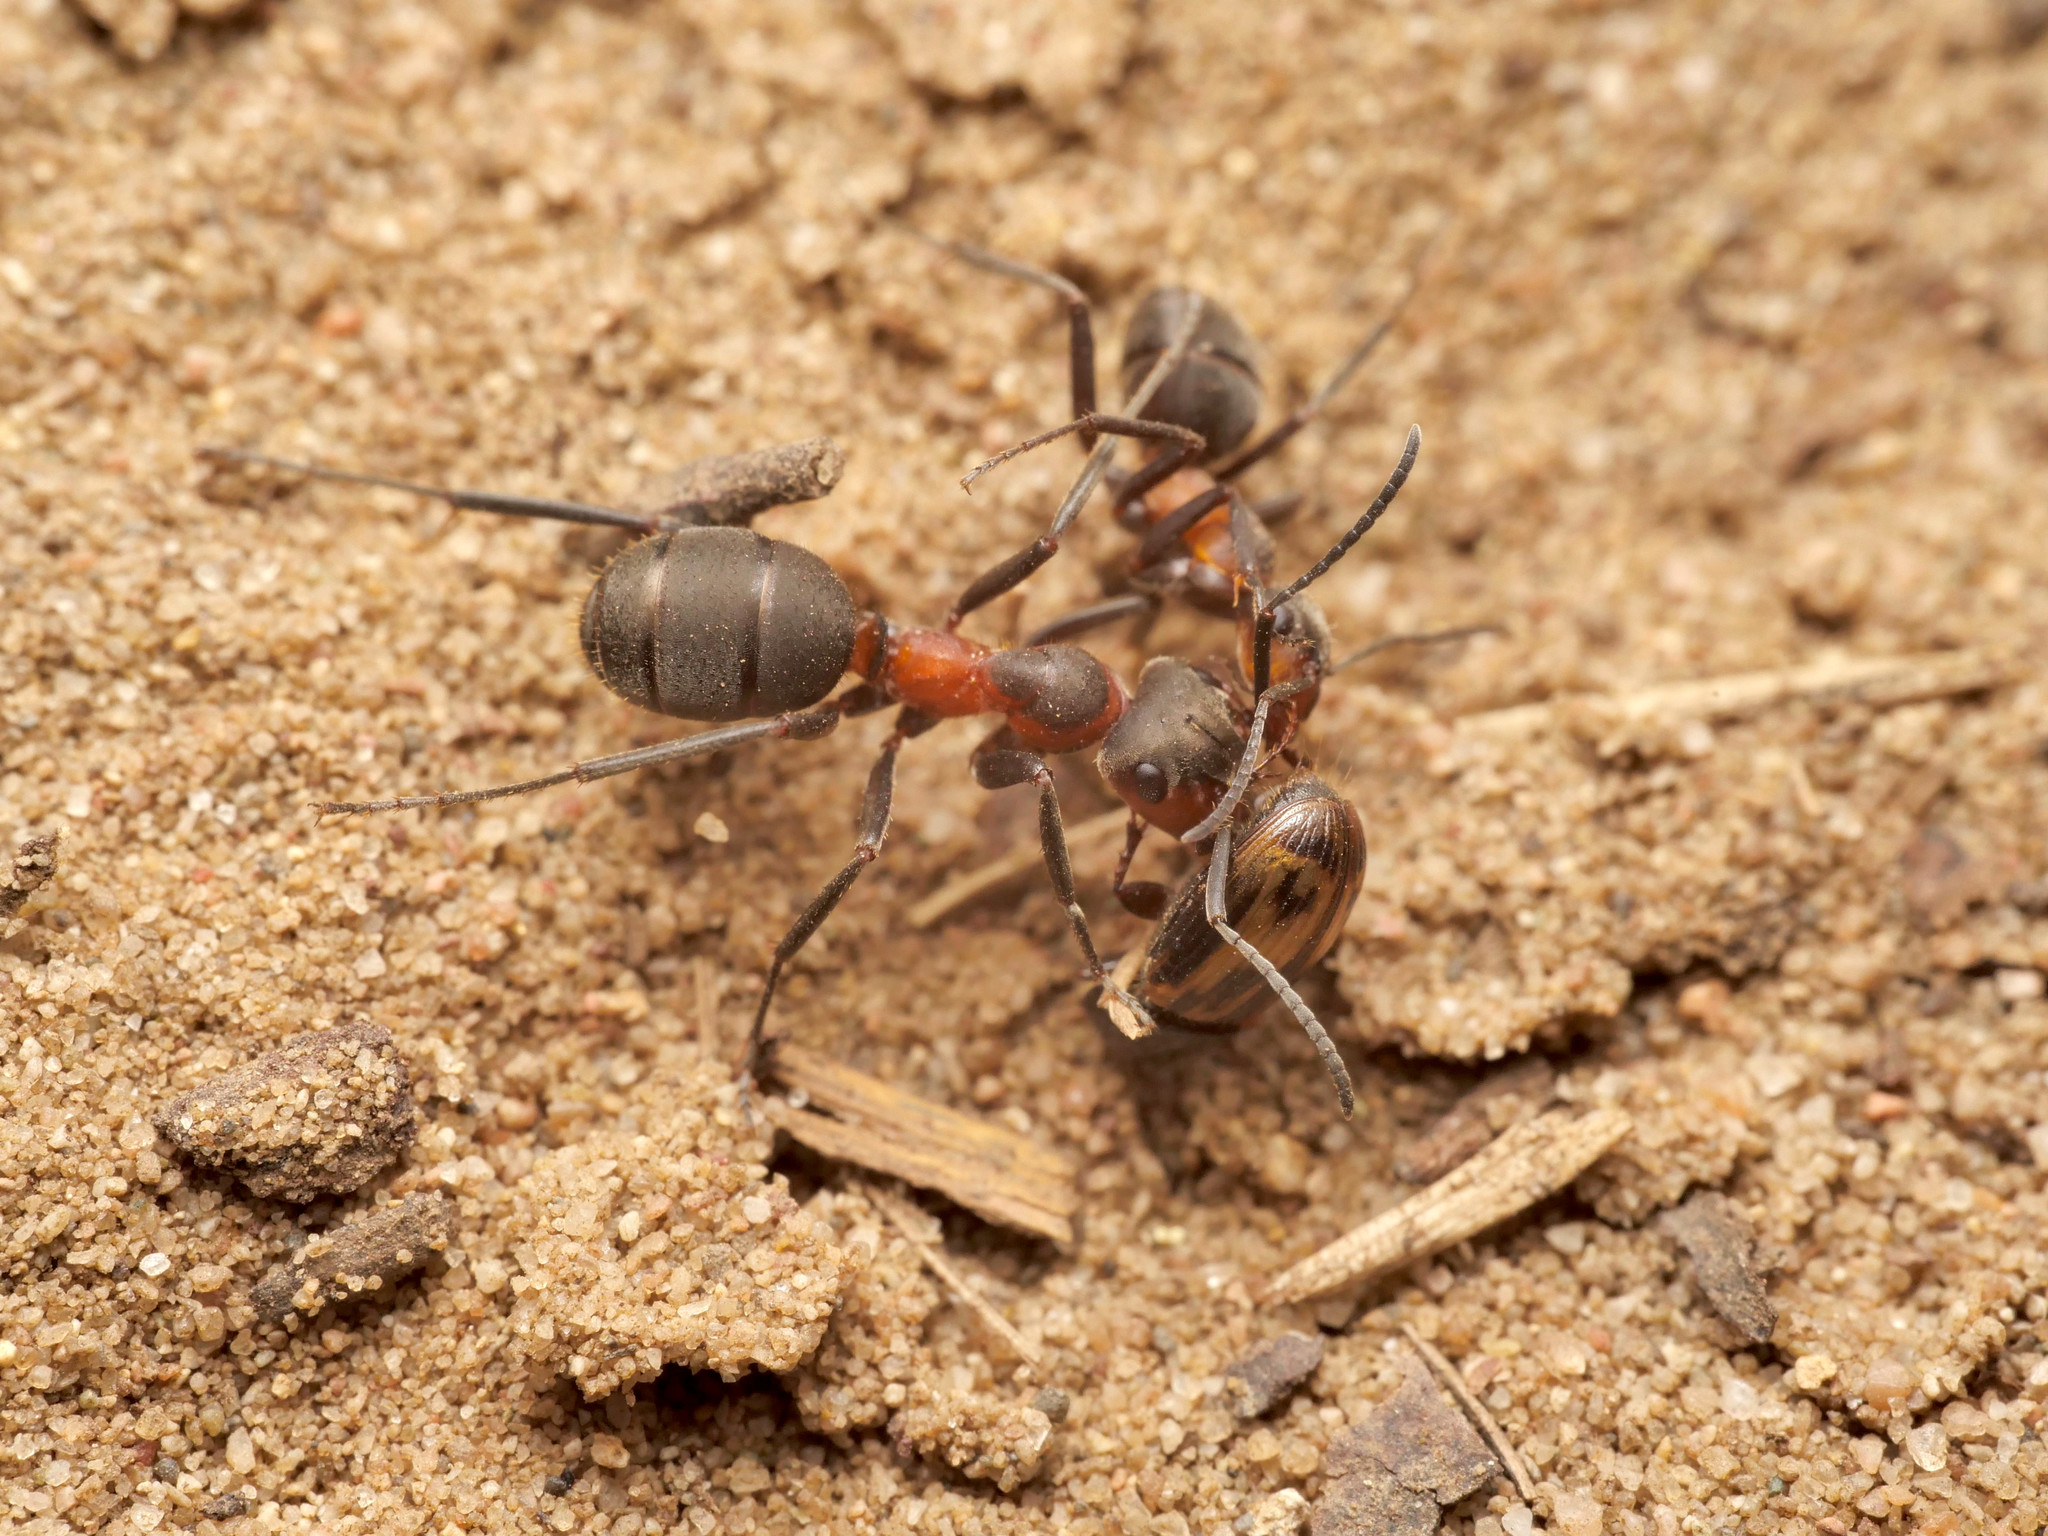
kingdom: Animalia
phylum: Arthropoda
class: Insecta
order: Hymenoptera
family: Formicidae
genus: Formica
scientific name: Formica pratensis
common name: European red wood ant
